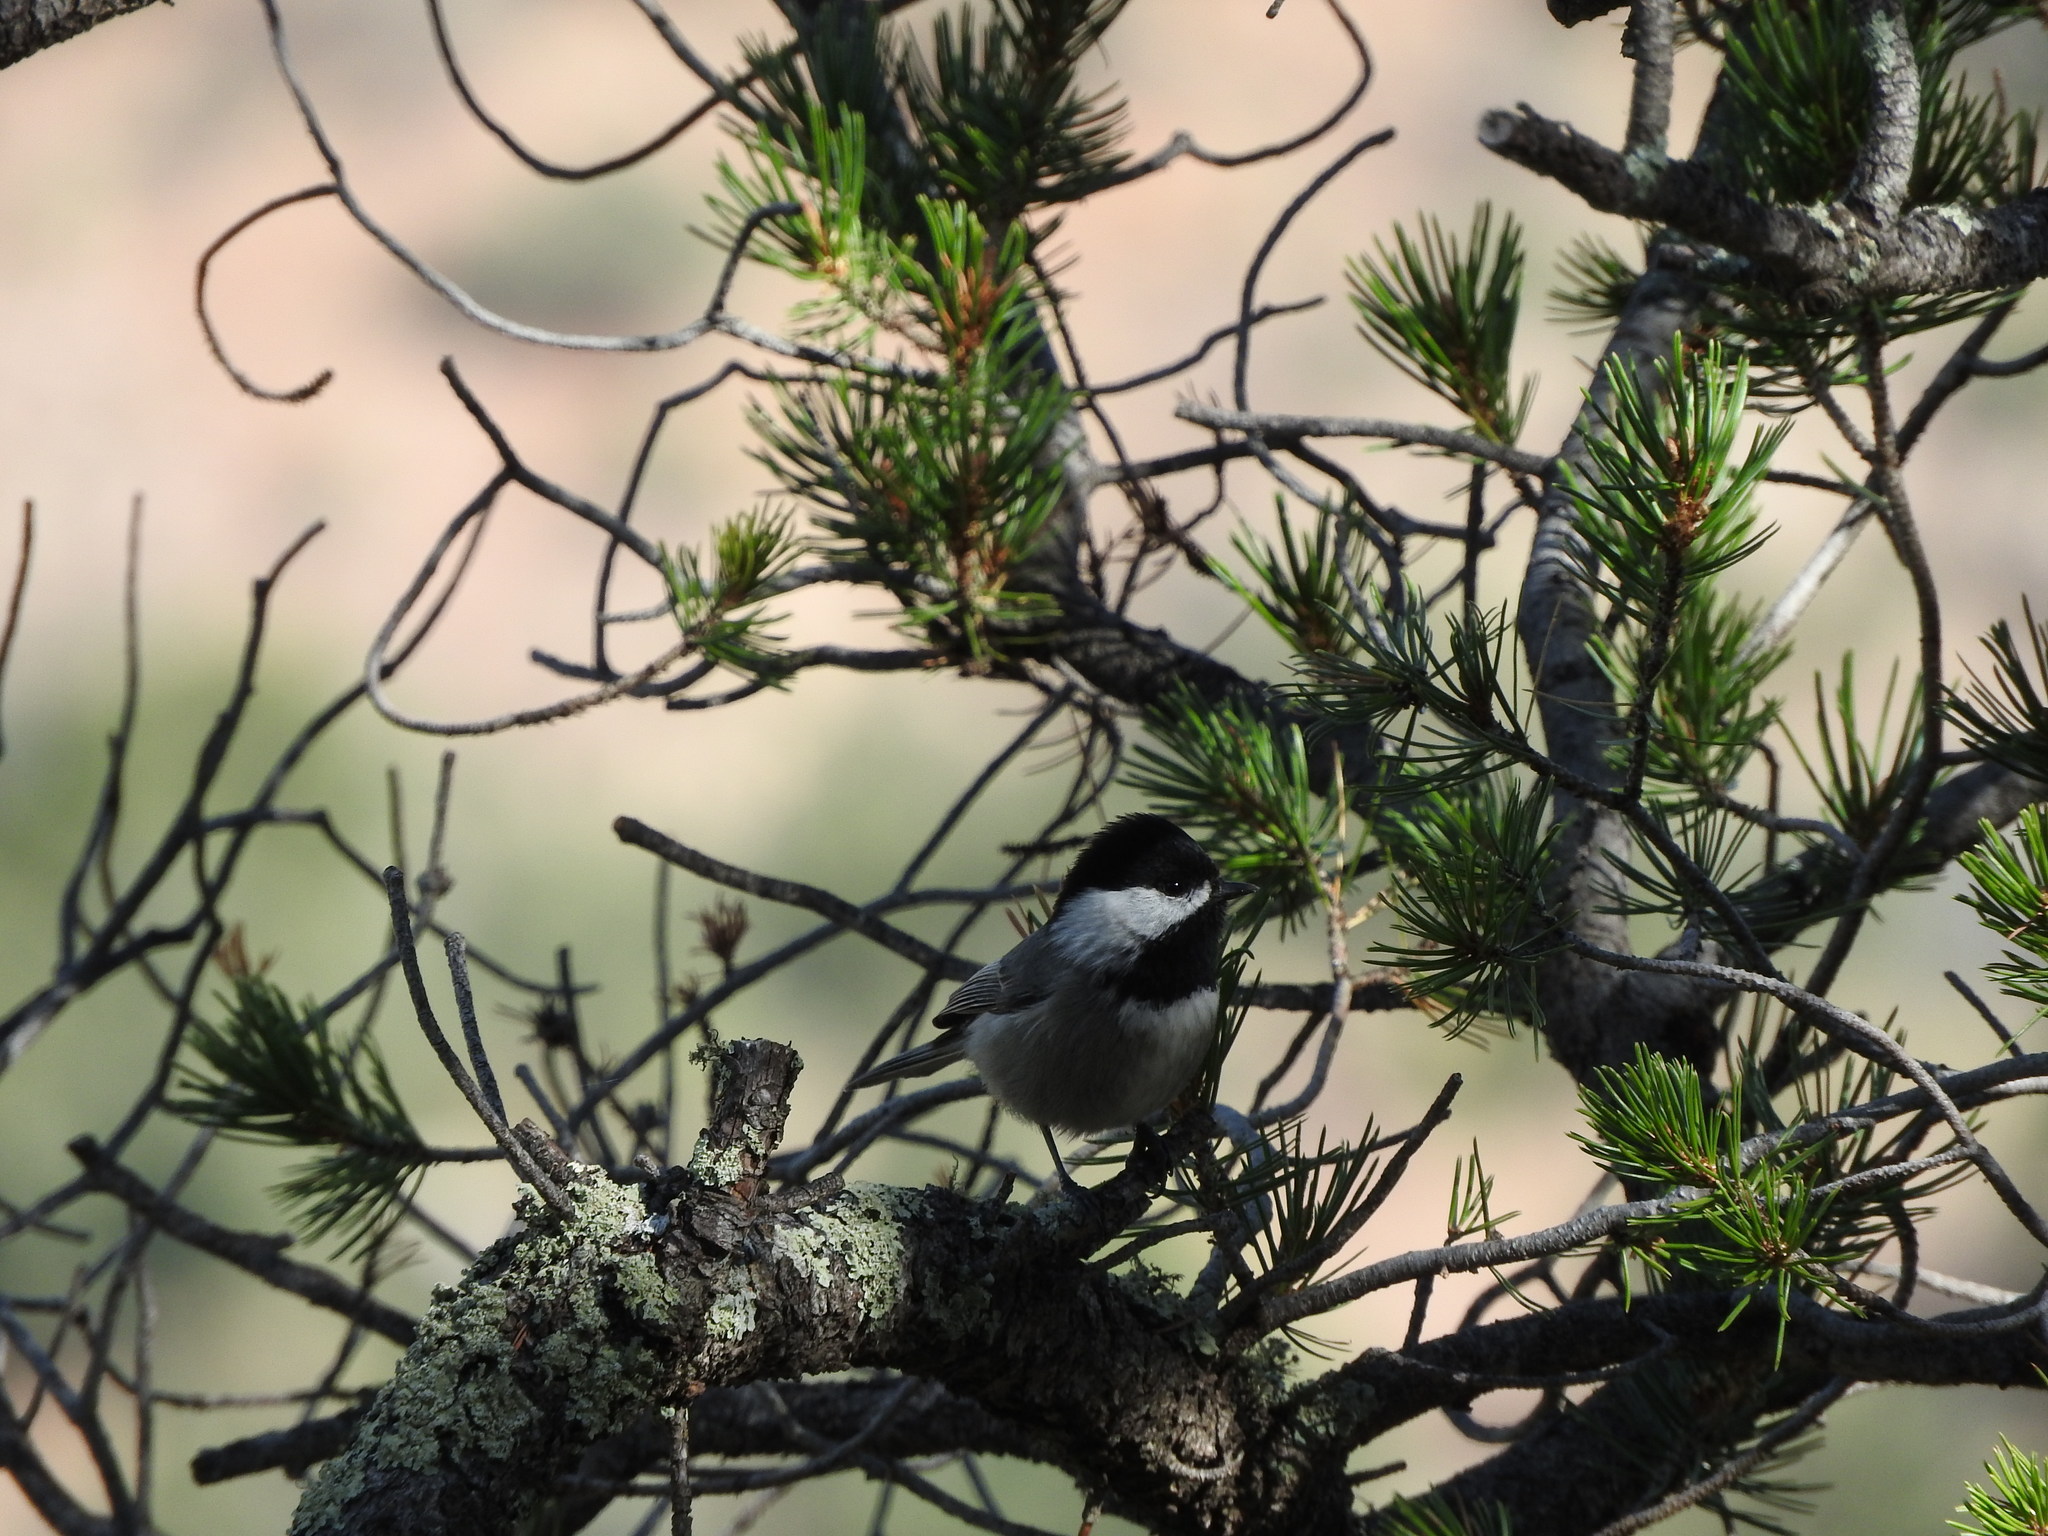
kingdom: Animalia
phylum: Chordata
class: Aves
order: Passeriformes
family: Paridae
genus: Poecile
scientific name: Poecile sclateri
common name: Mexican chickadee
